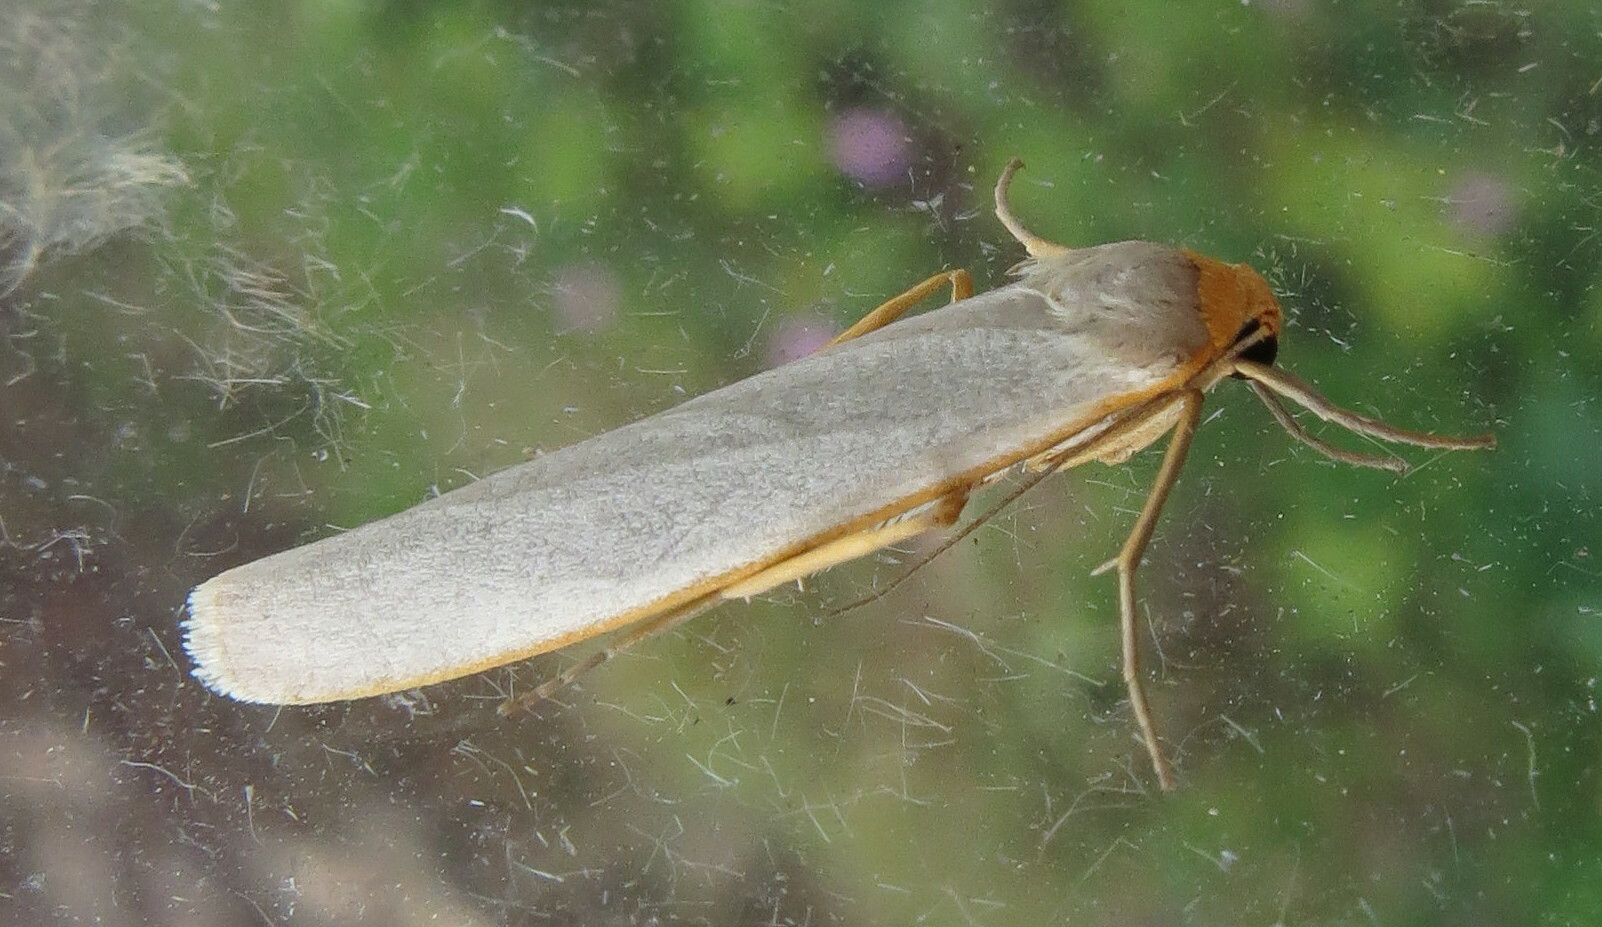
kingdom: Animalia
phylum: Arthropoda
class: Insecta
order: Lepidoptera
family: Erebidae
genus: Manulea
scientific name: Manulea complana
